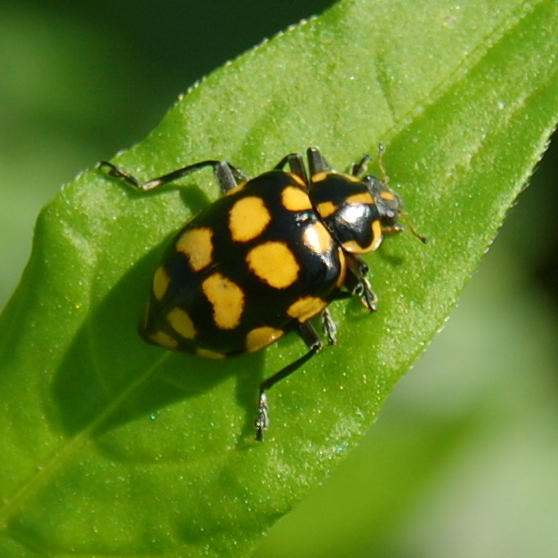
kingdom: Animalia
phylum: Arthropoda
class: Insecta
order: Coleoptera
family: Coccinellidae
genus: Coleomegilla
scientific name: Coleomegilla
